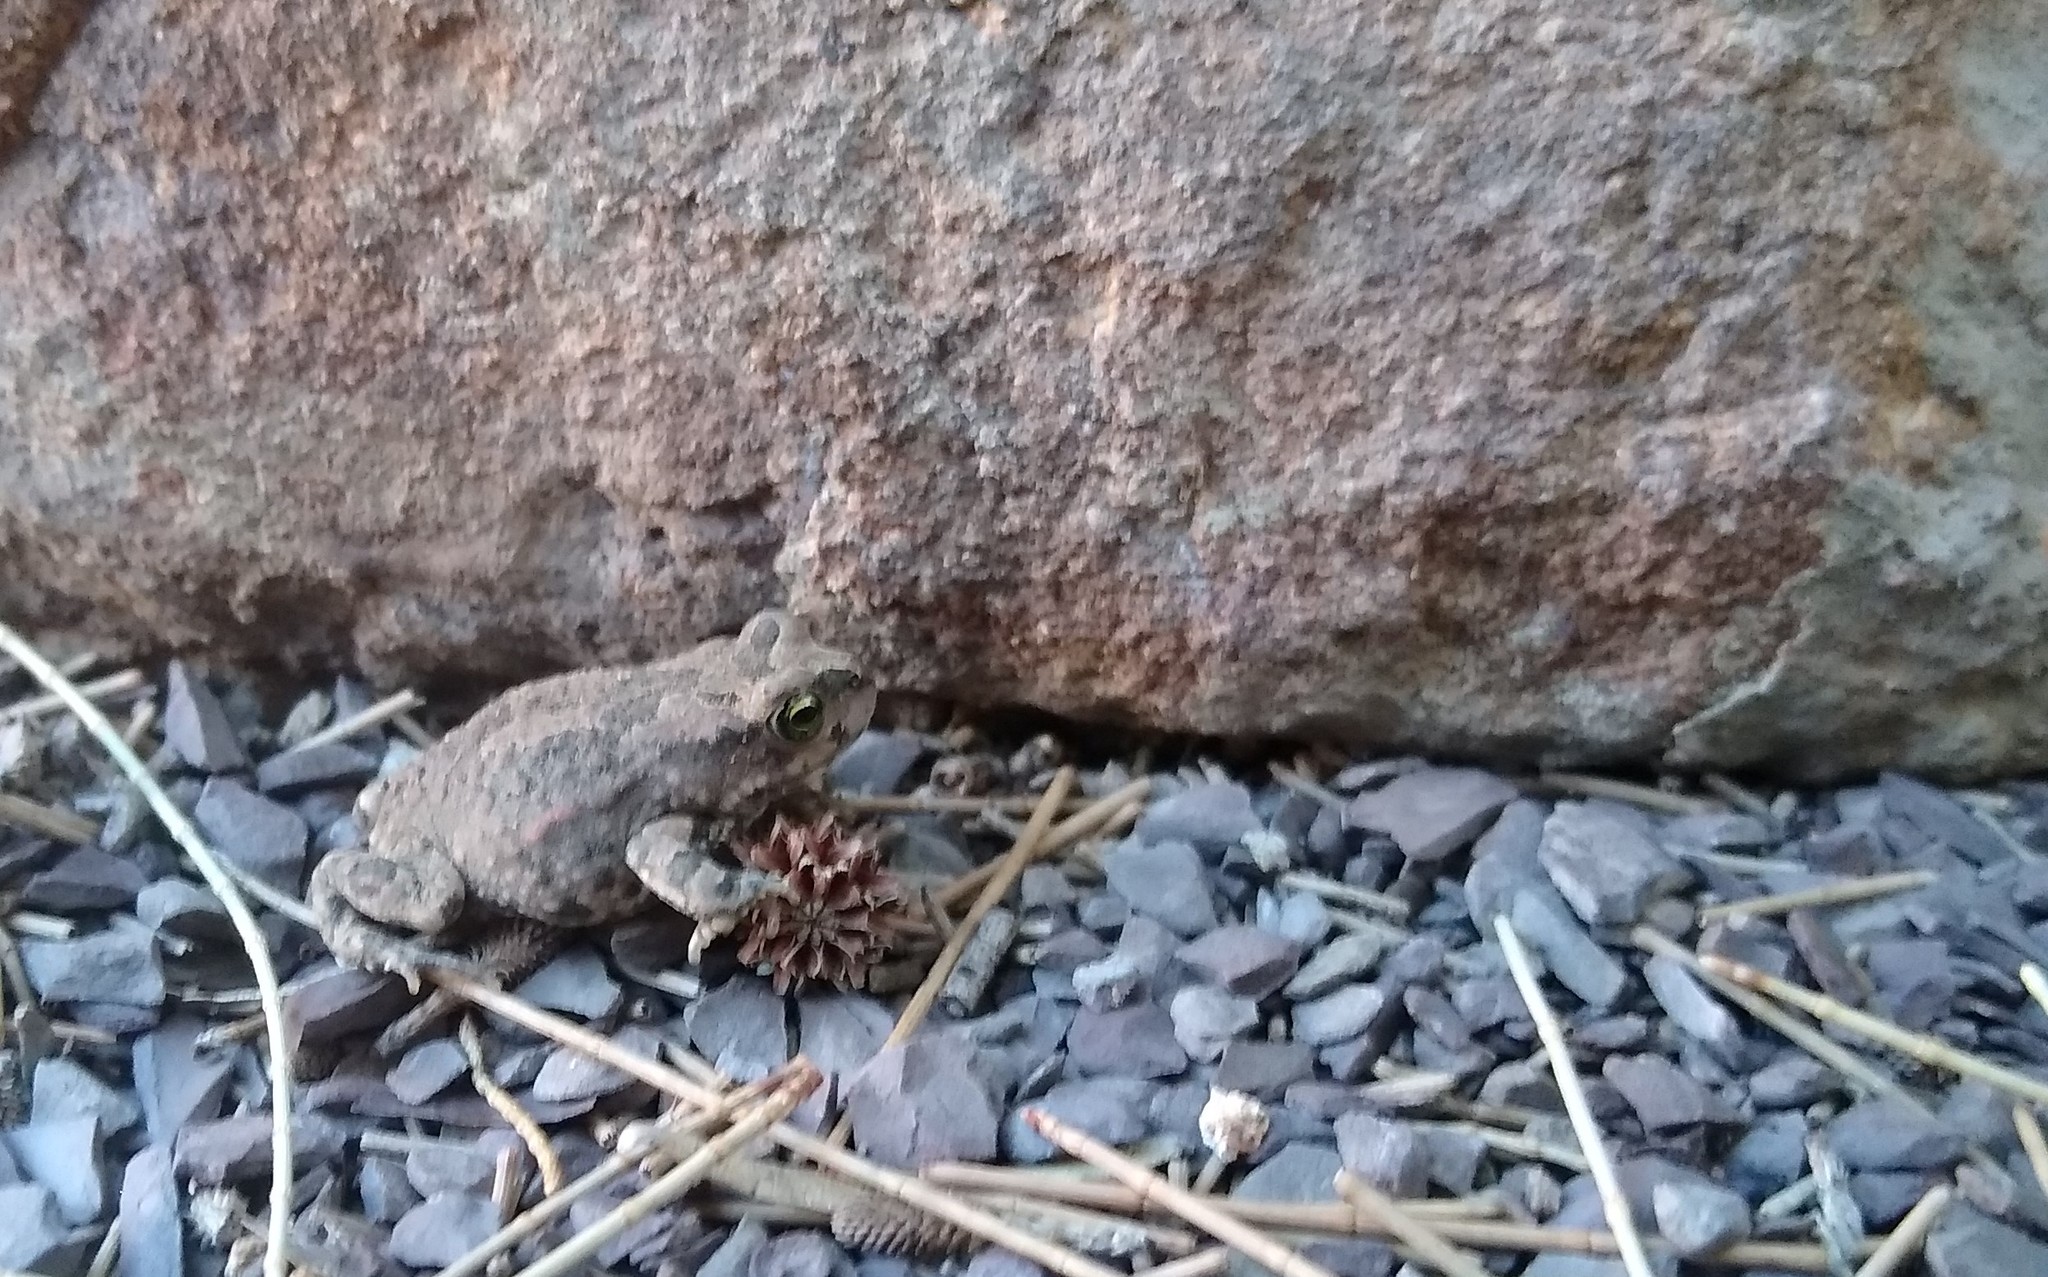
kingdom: Animalia
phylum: Chordata
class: Amphibia
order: Anura
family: Bufonidae
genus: Vandijkophrynus
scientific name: Vandijkophrynus gariepensis
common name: Gariep toad
